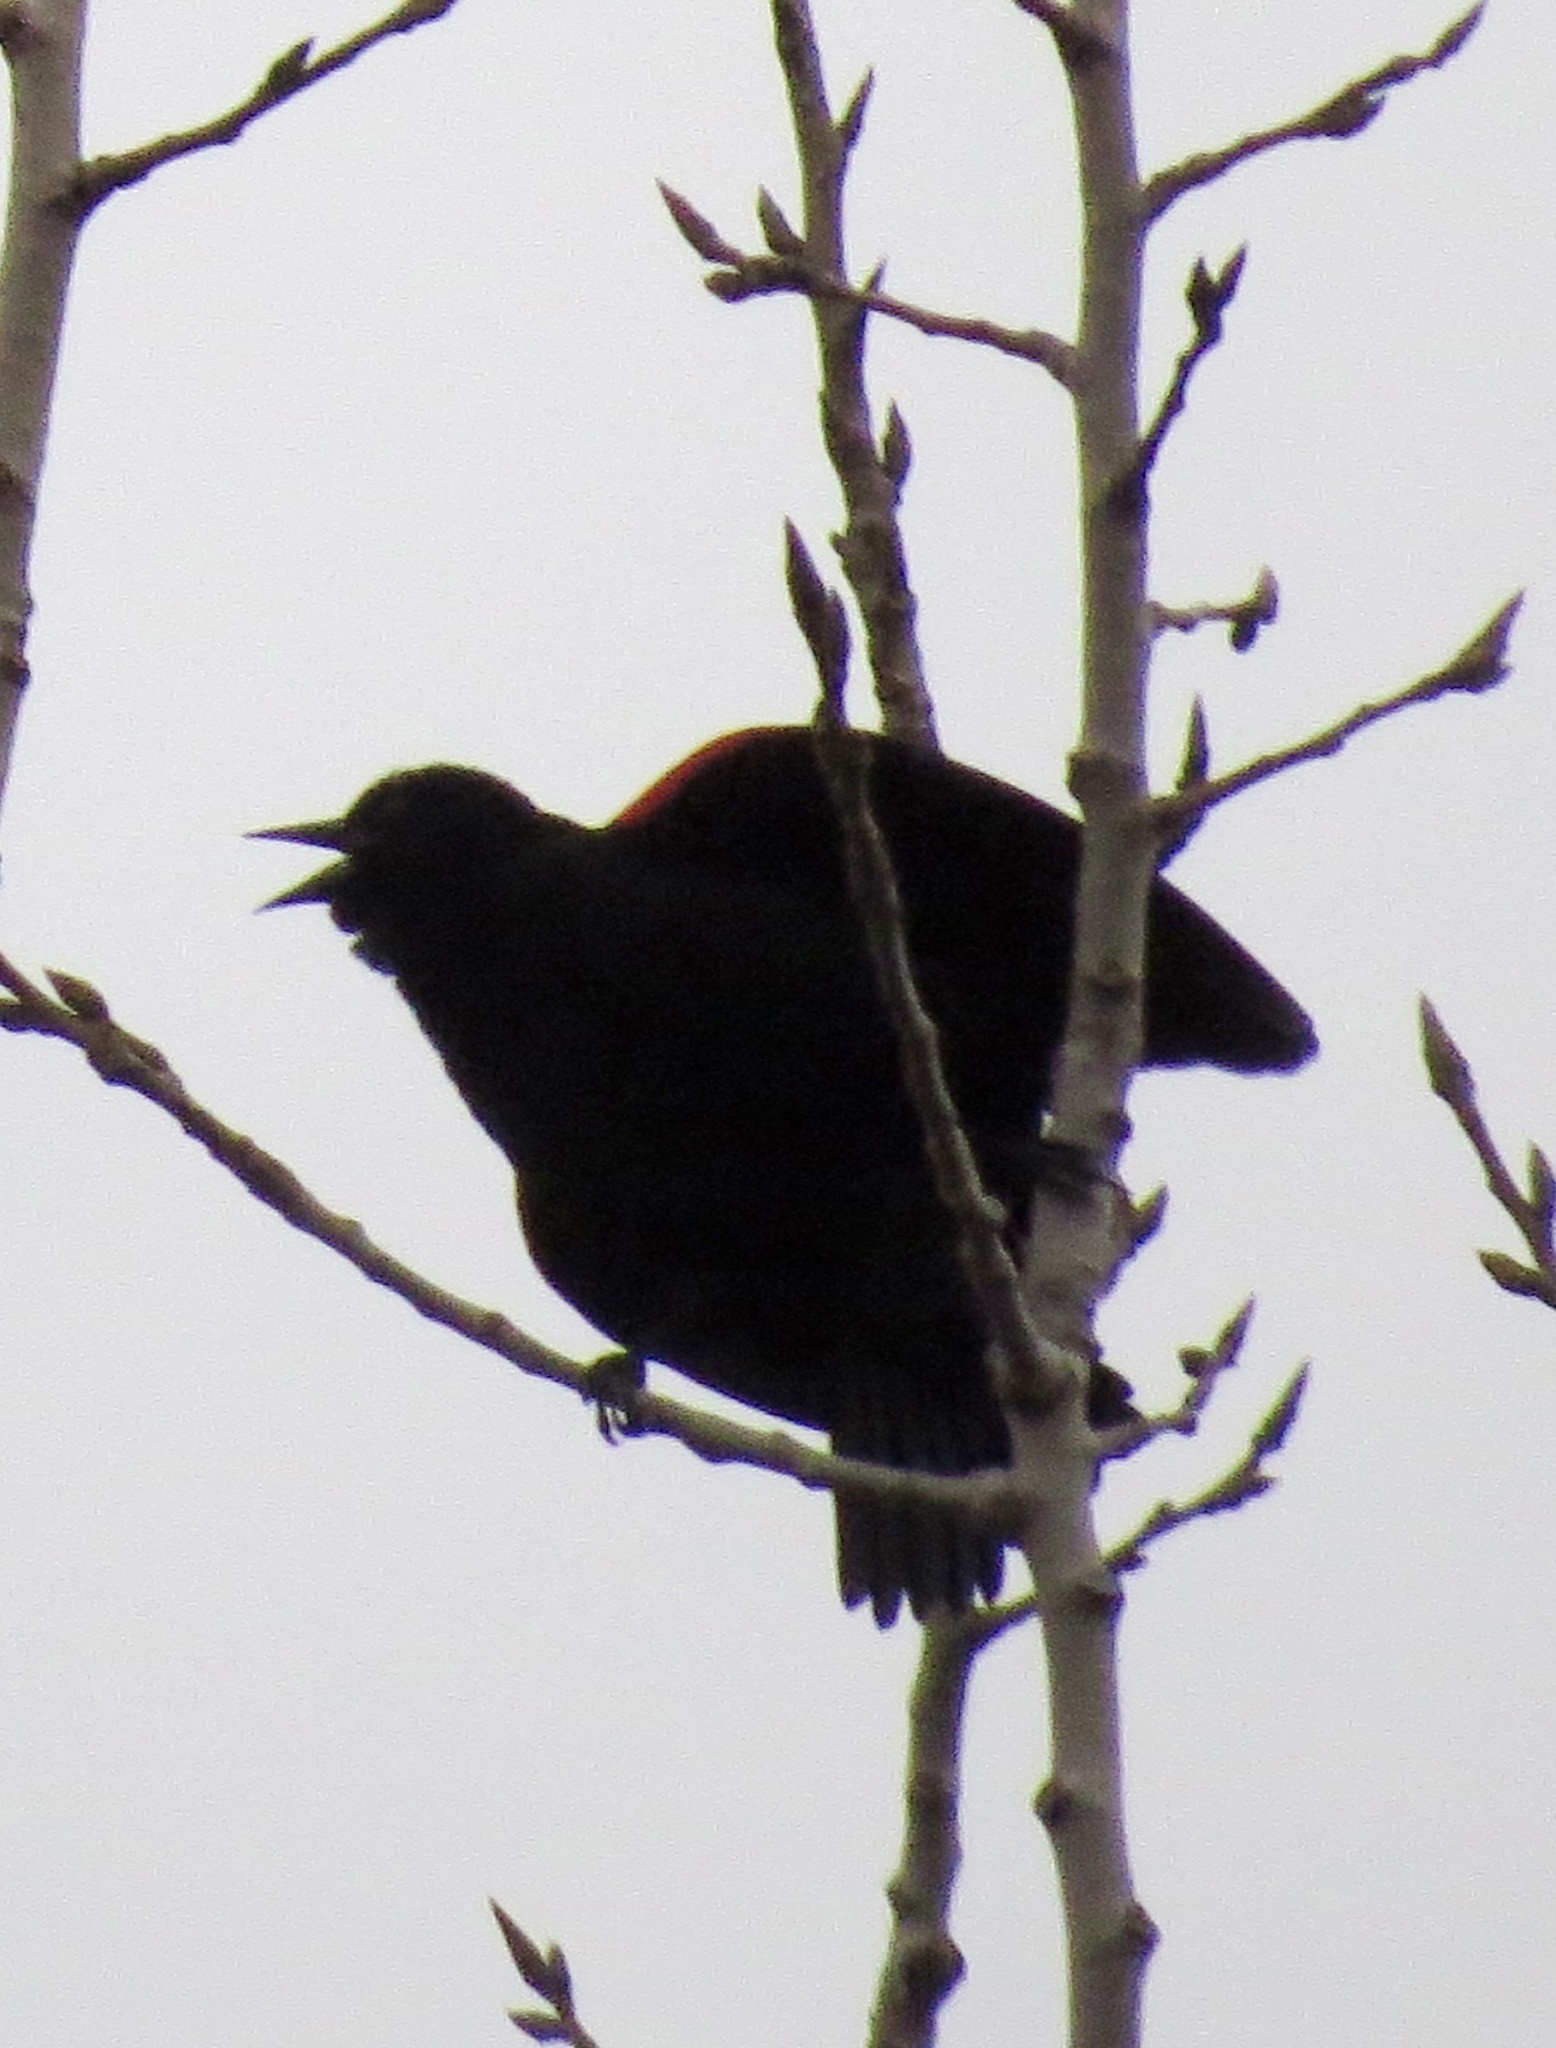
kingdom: Animalia
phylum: Chordata
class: Aves
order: Passeriformes
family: Icteridae
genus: Agelaius
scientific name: Agelaius phoeniceus
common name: Red-winged blackbird
